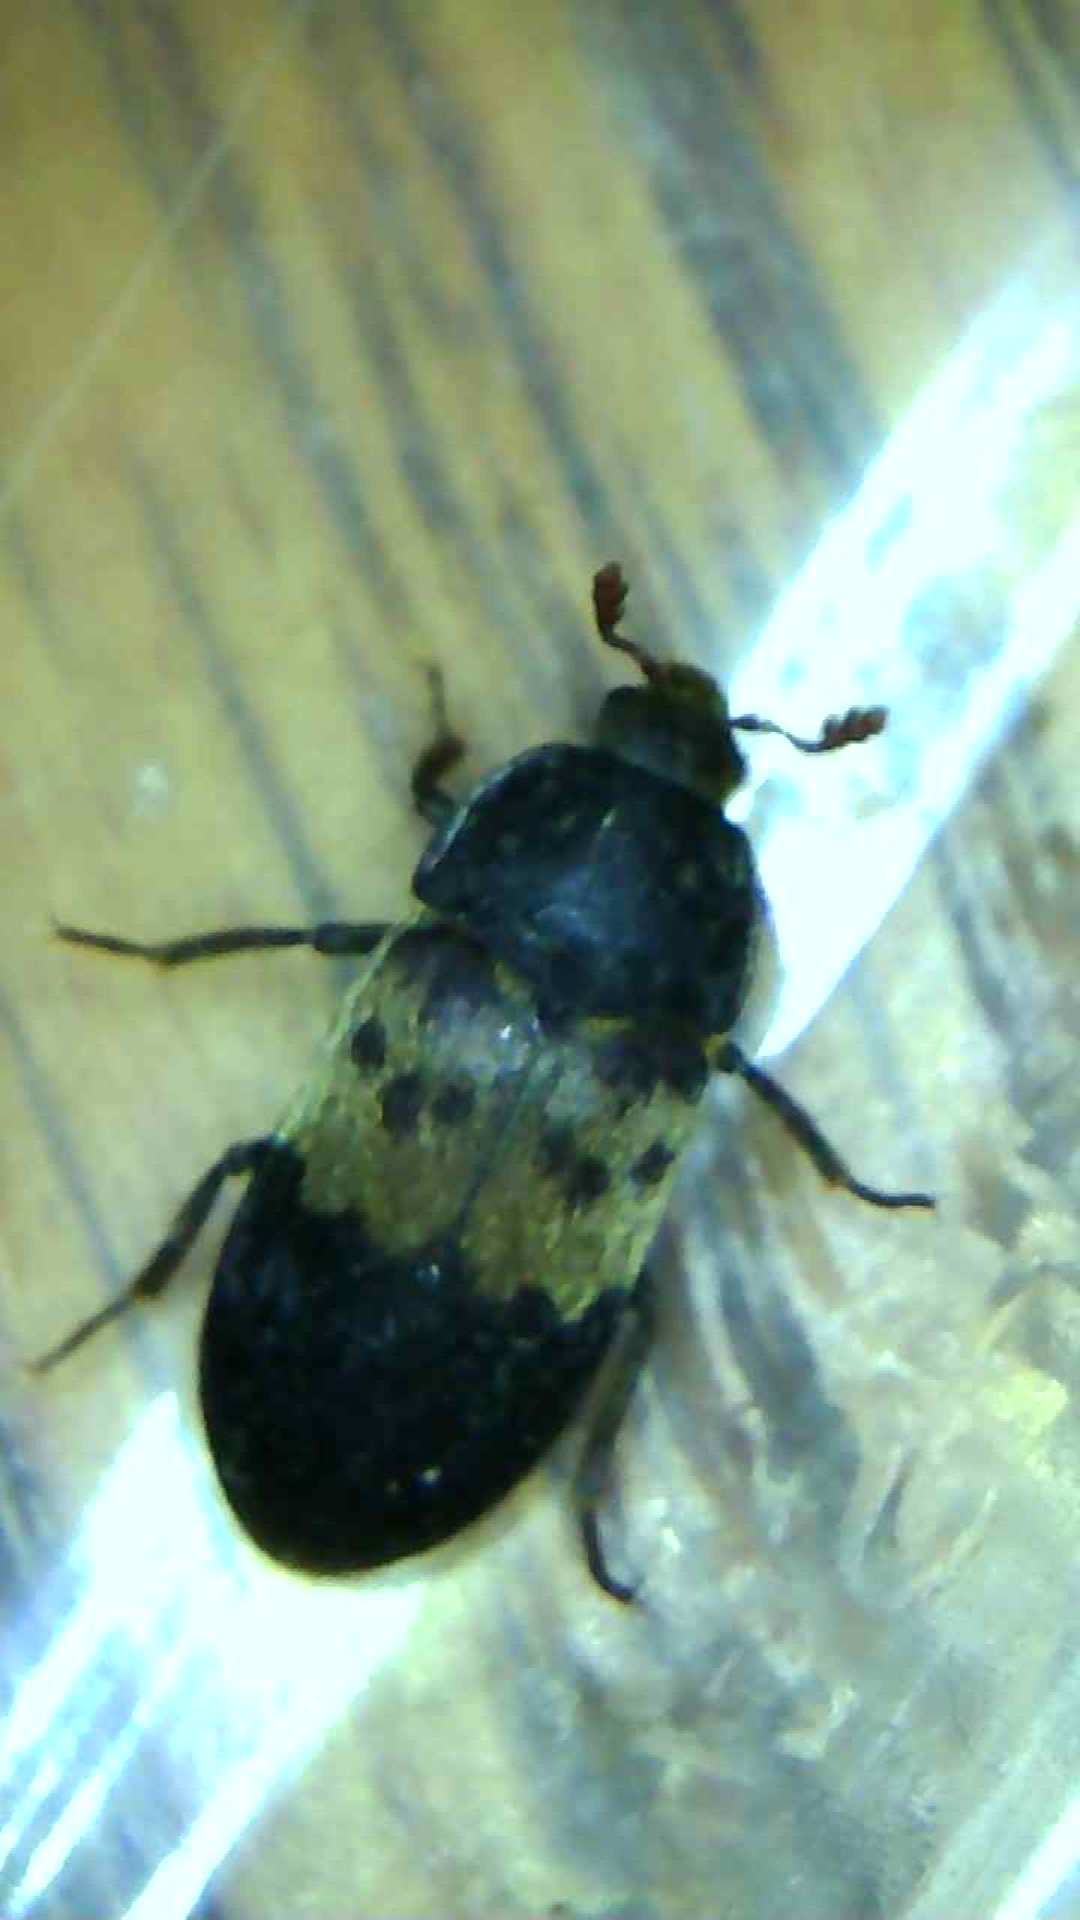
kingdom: Animalia
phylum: Arthropoda
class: Insecta
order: Coleoptera
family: Dermestidae
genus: Dermestes
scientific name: Dermestes lardarius
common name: Larder beetle
